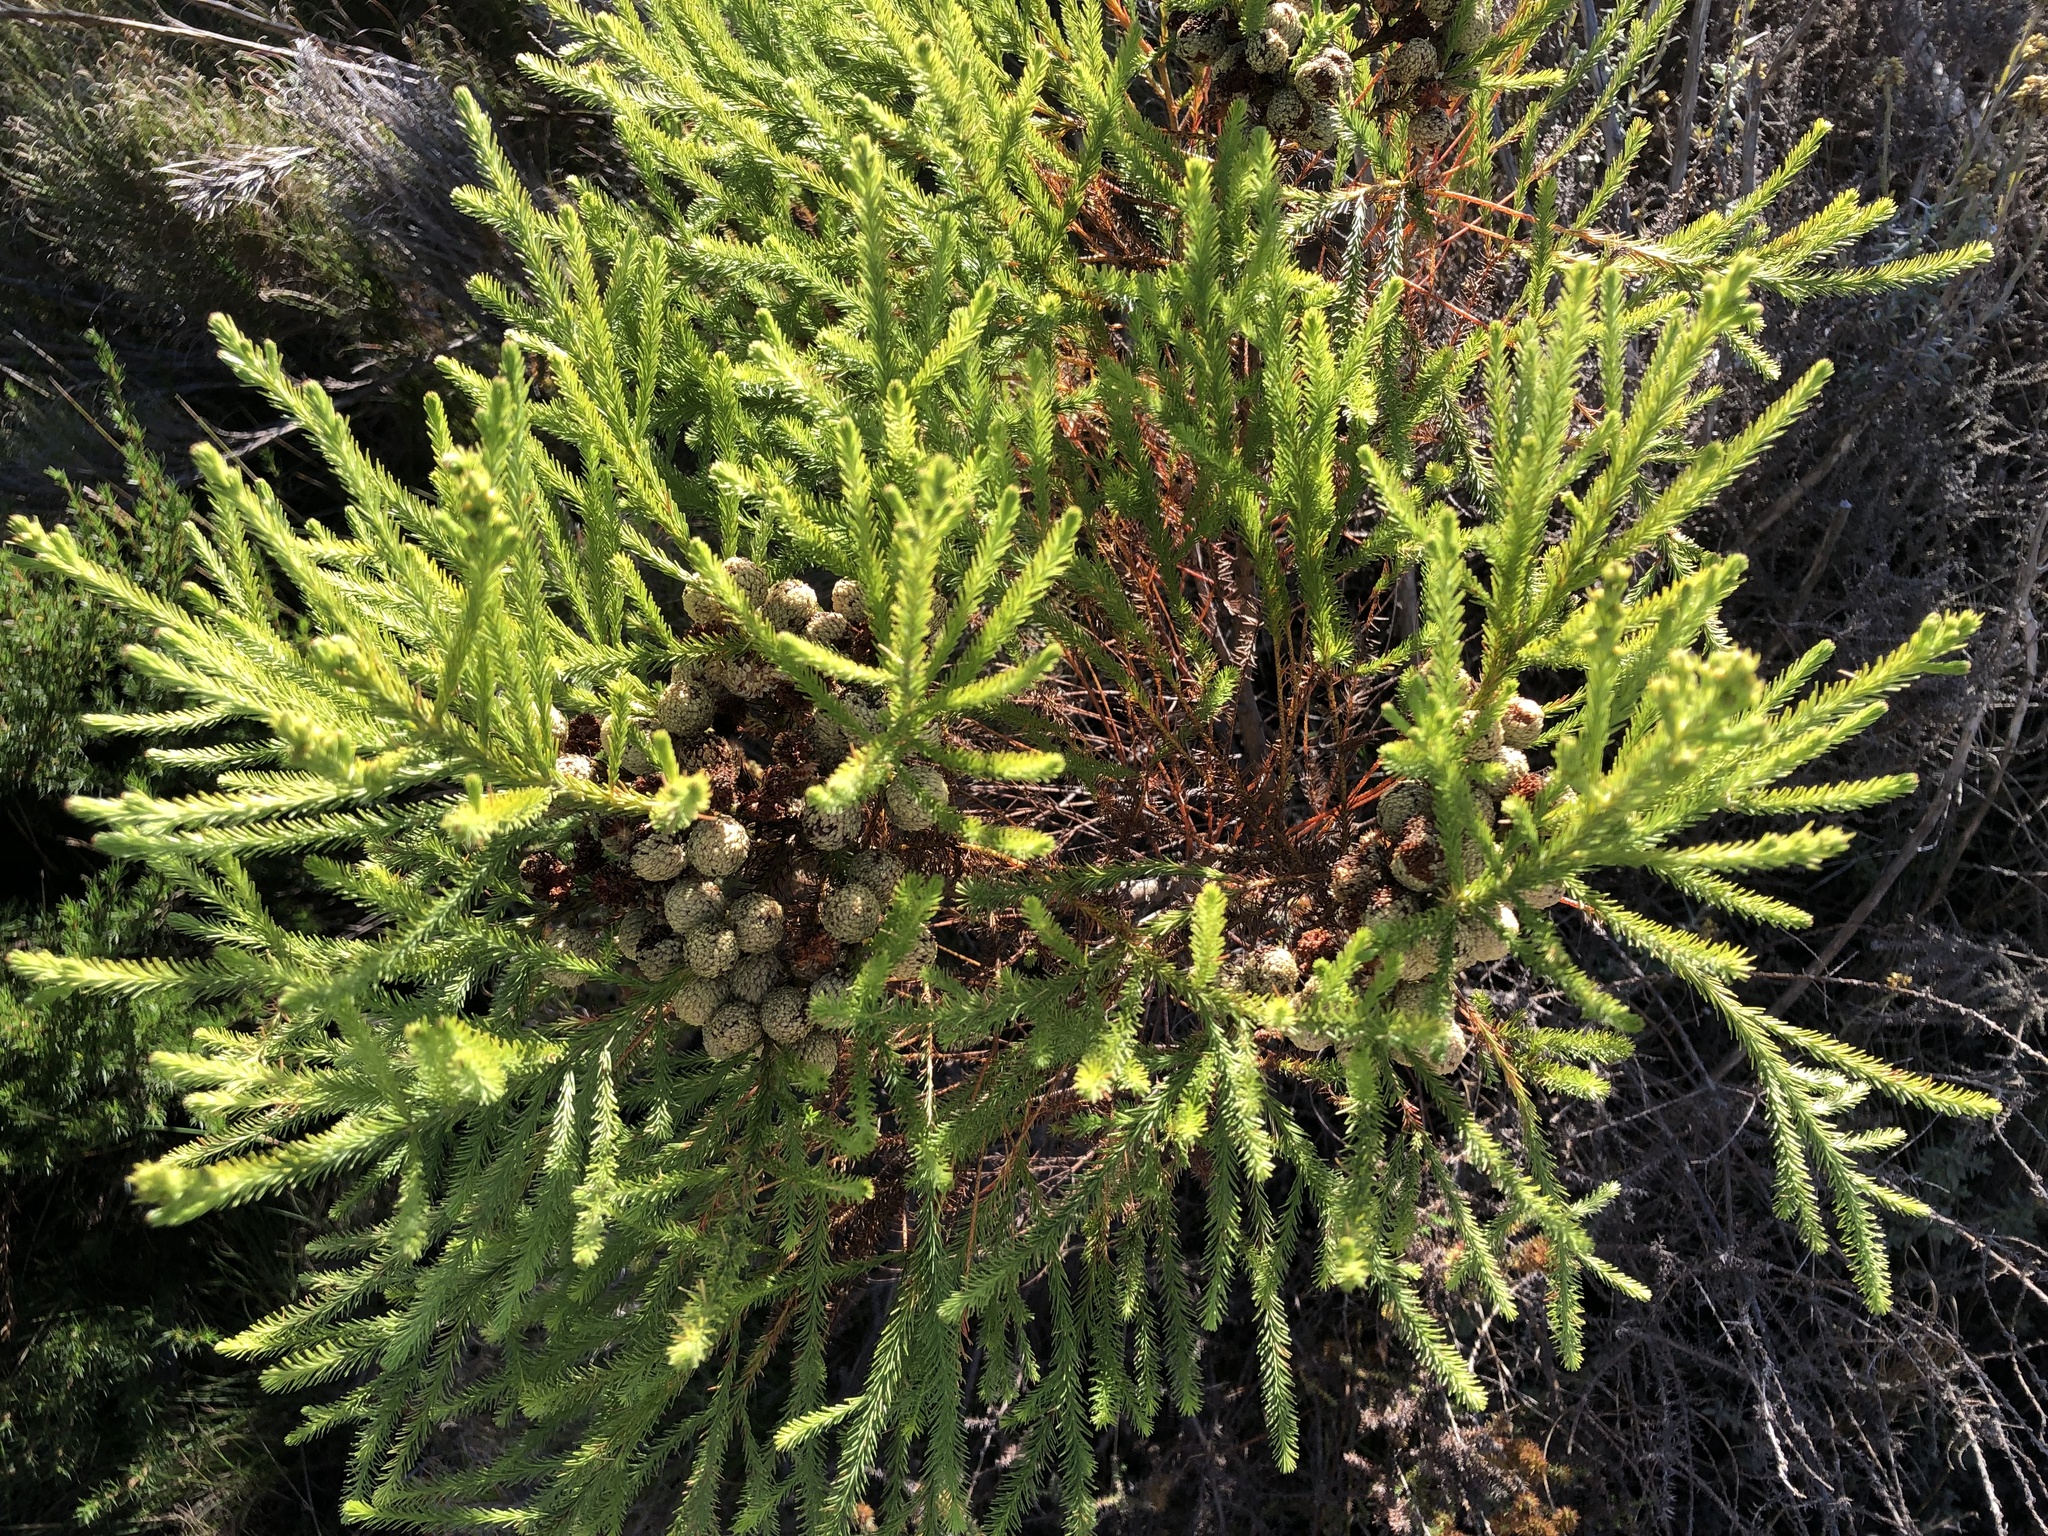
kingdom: Plantae
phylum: Tracheophyta
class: Magnoliopsida
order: Bruniales
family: Bruniaceae
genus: Berzelia
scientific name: Berzelia lanuginosa
